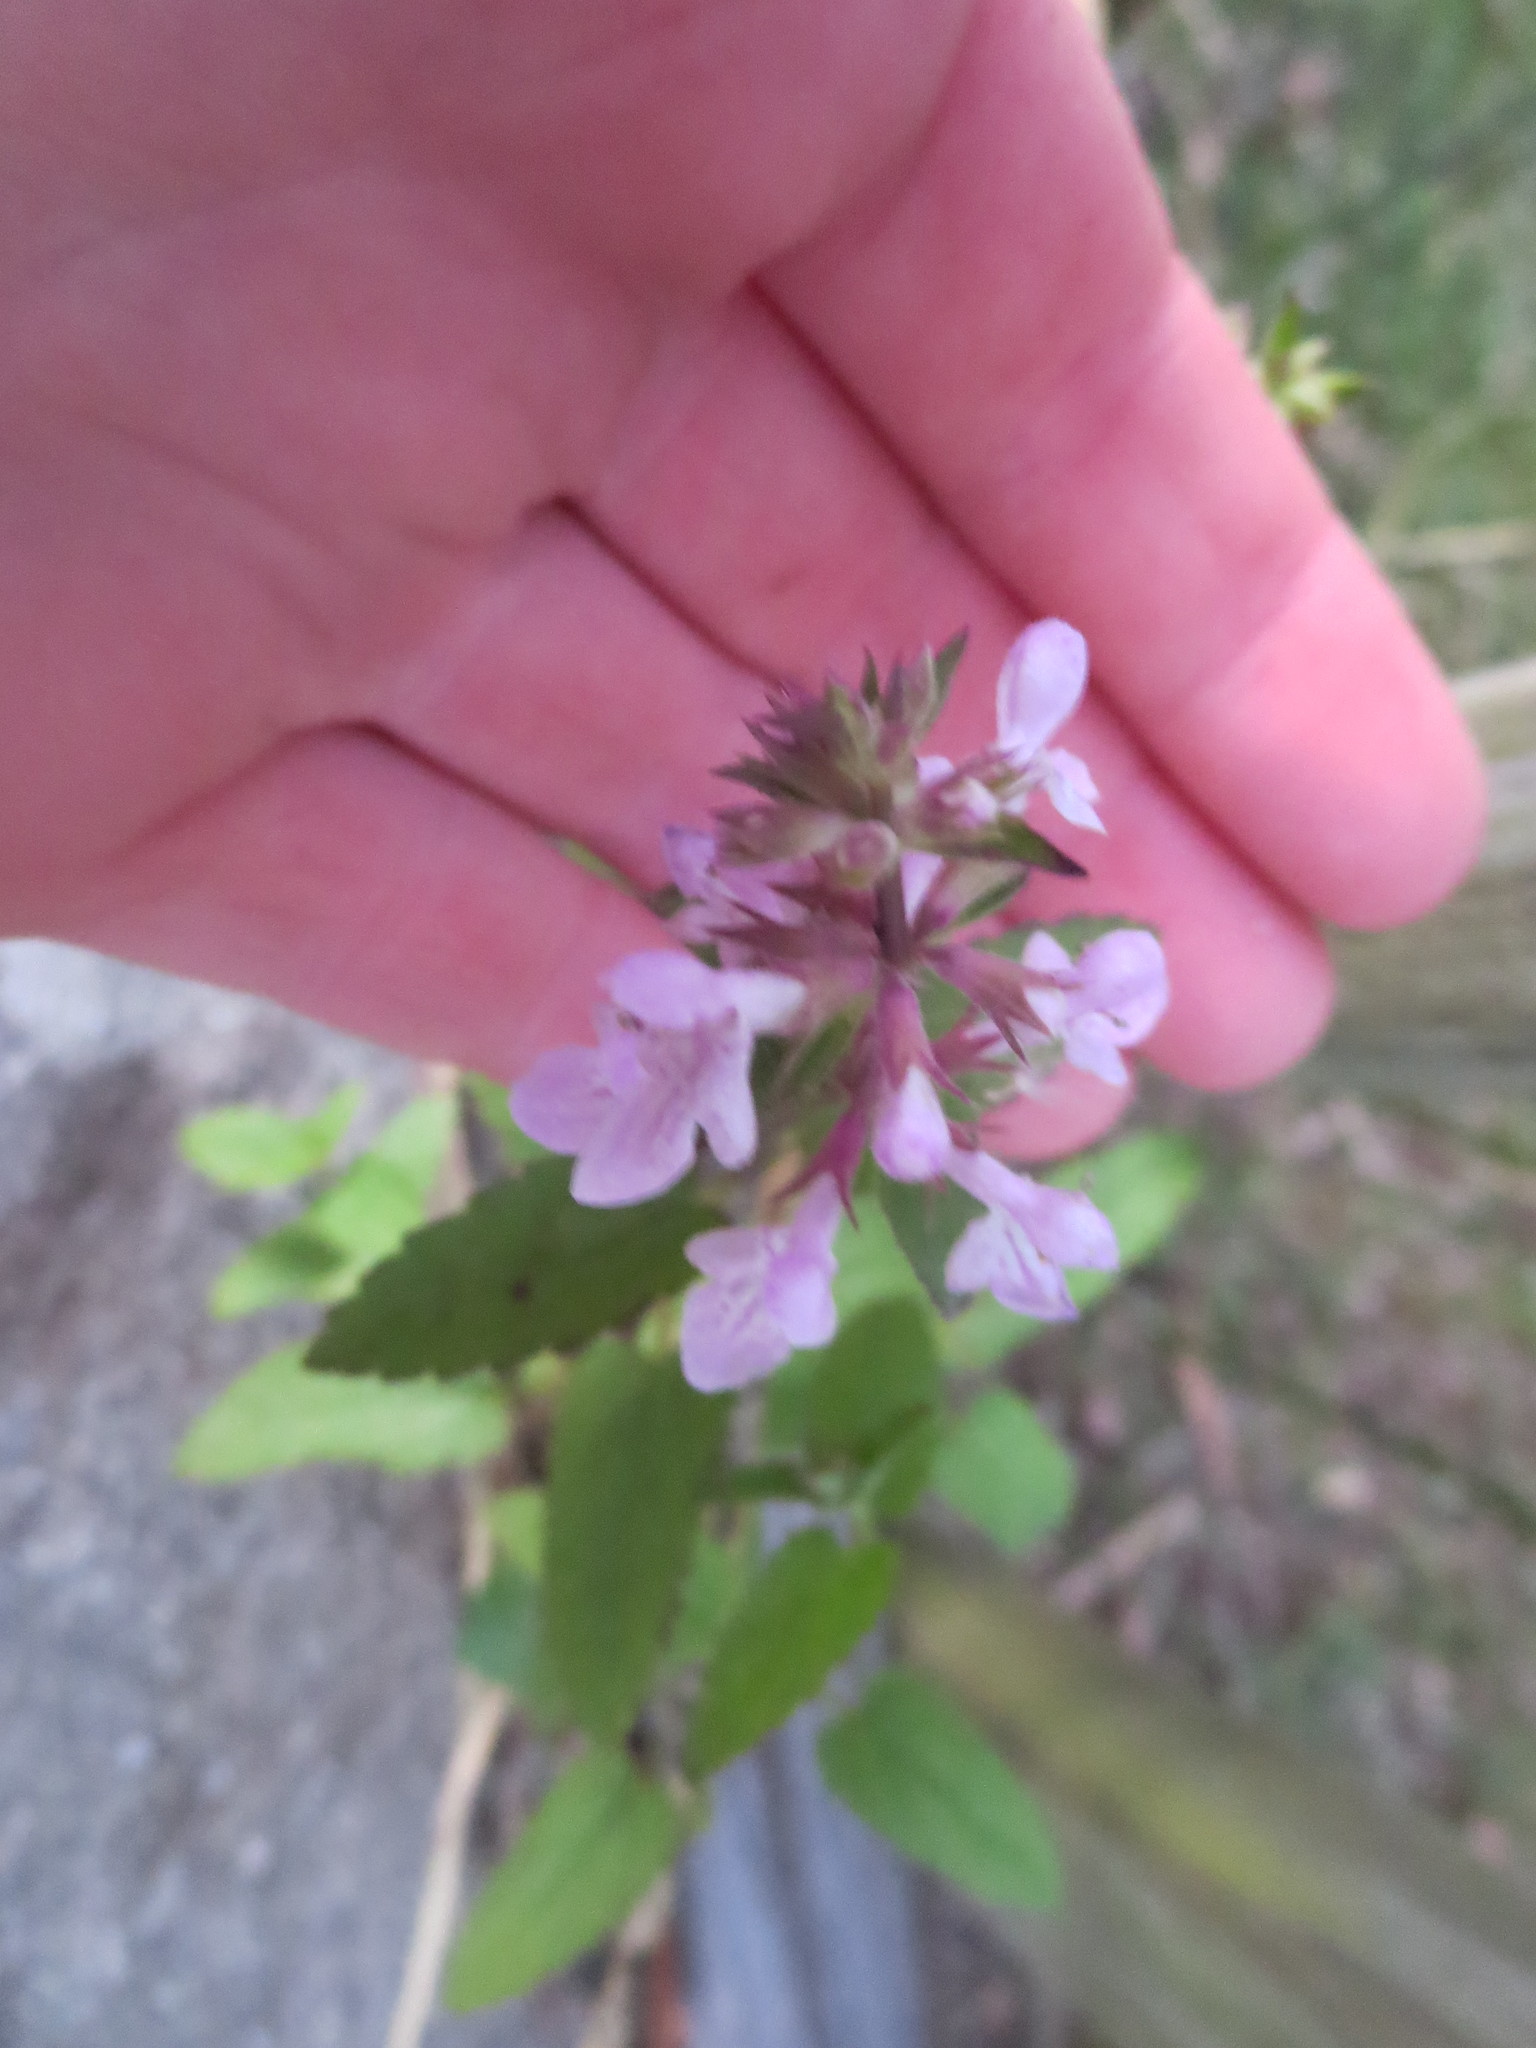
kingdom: Plantae
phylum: Tracheophyta
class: Magnoliopsida
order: Lamiales
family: Lamiaceae
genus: Stachys
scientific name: Stachys floridana
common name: Florida betony
